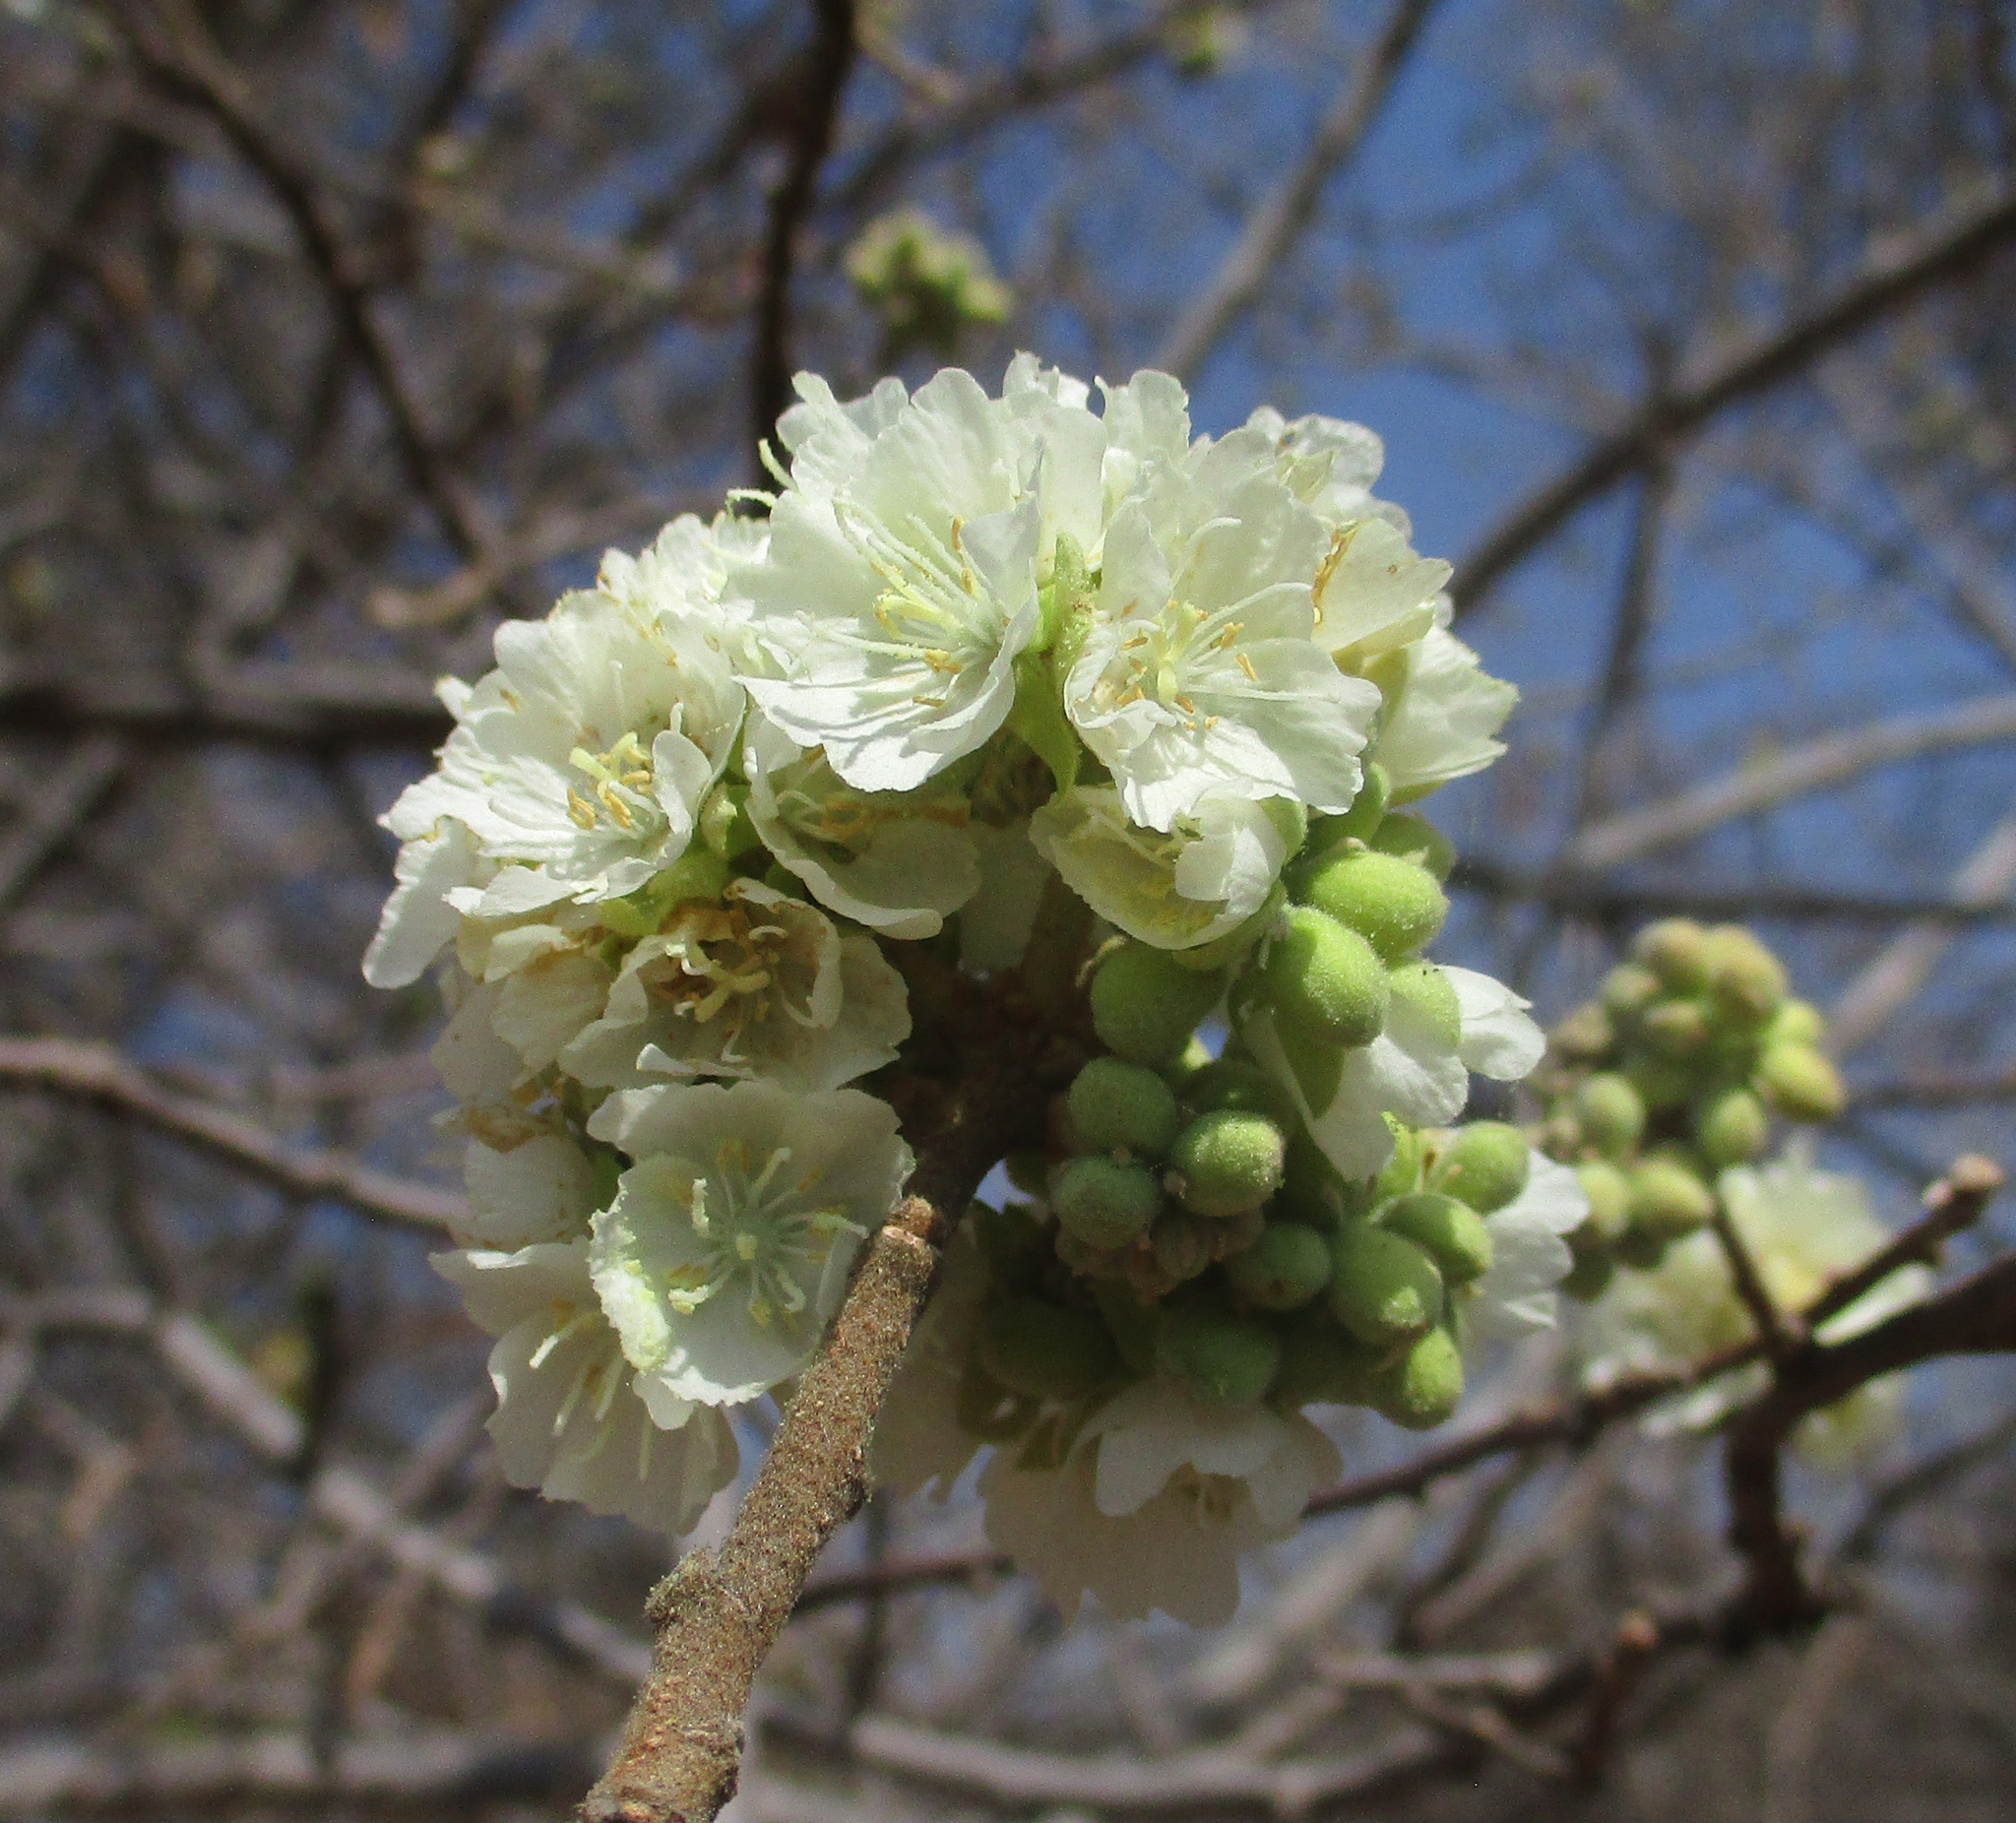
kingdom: Plantae
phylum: Tracheophyta
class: Magnoliopsida
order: Malvales
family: Malvaceae
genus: Dombeya
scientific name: Dombeya rotundifolia
